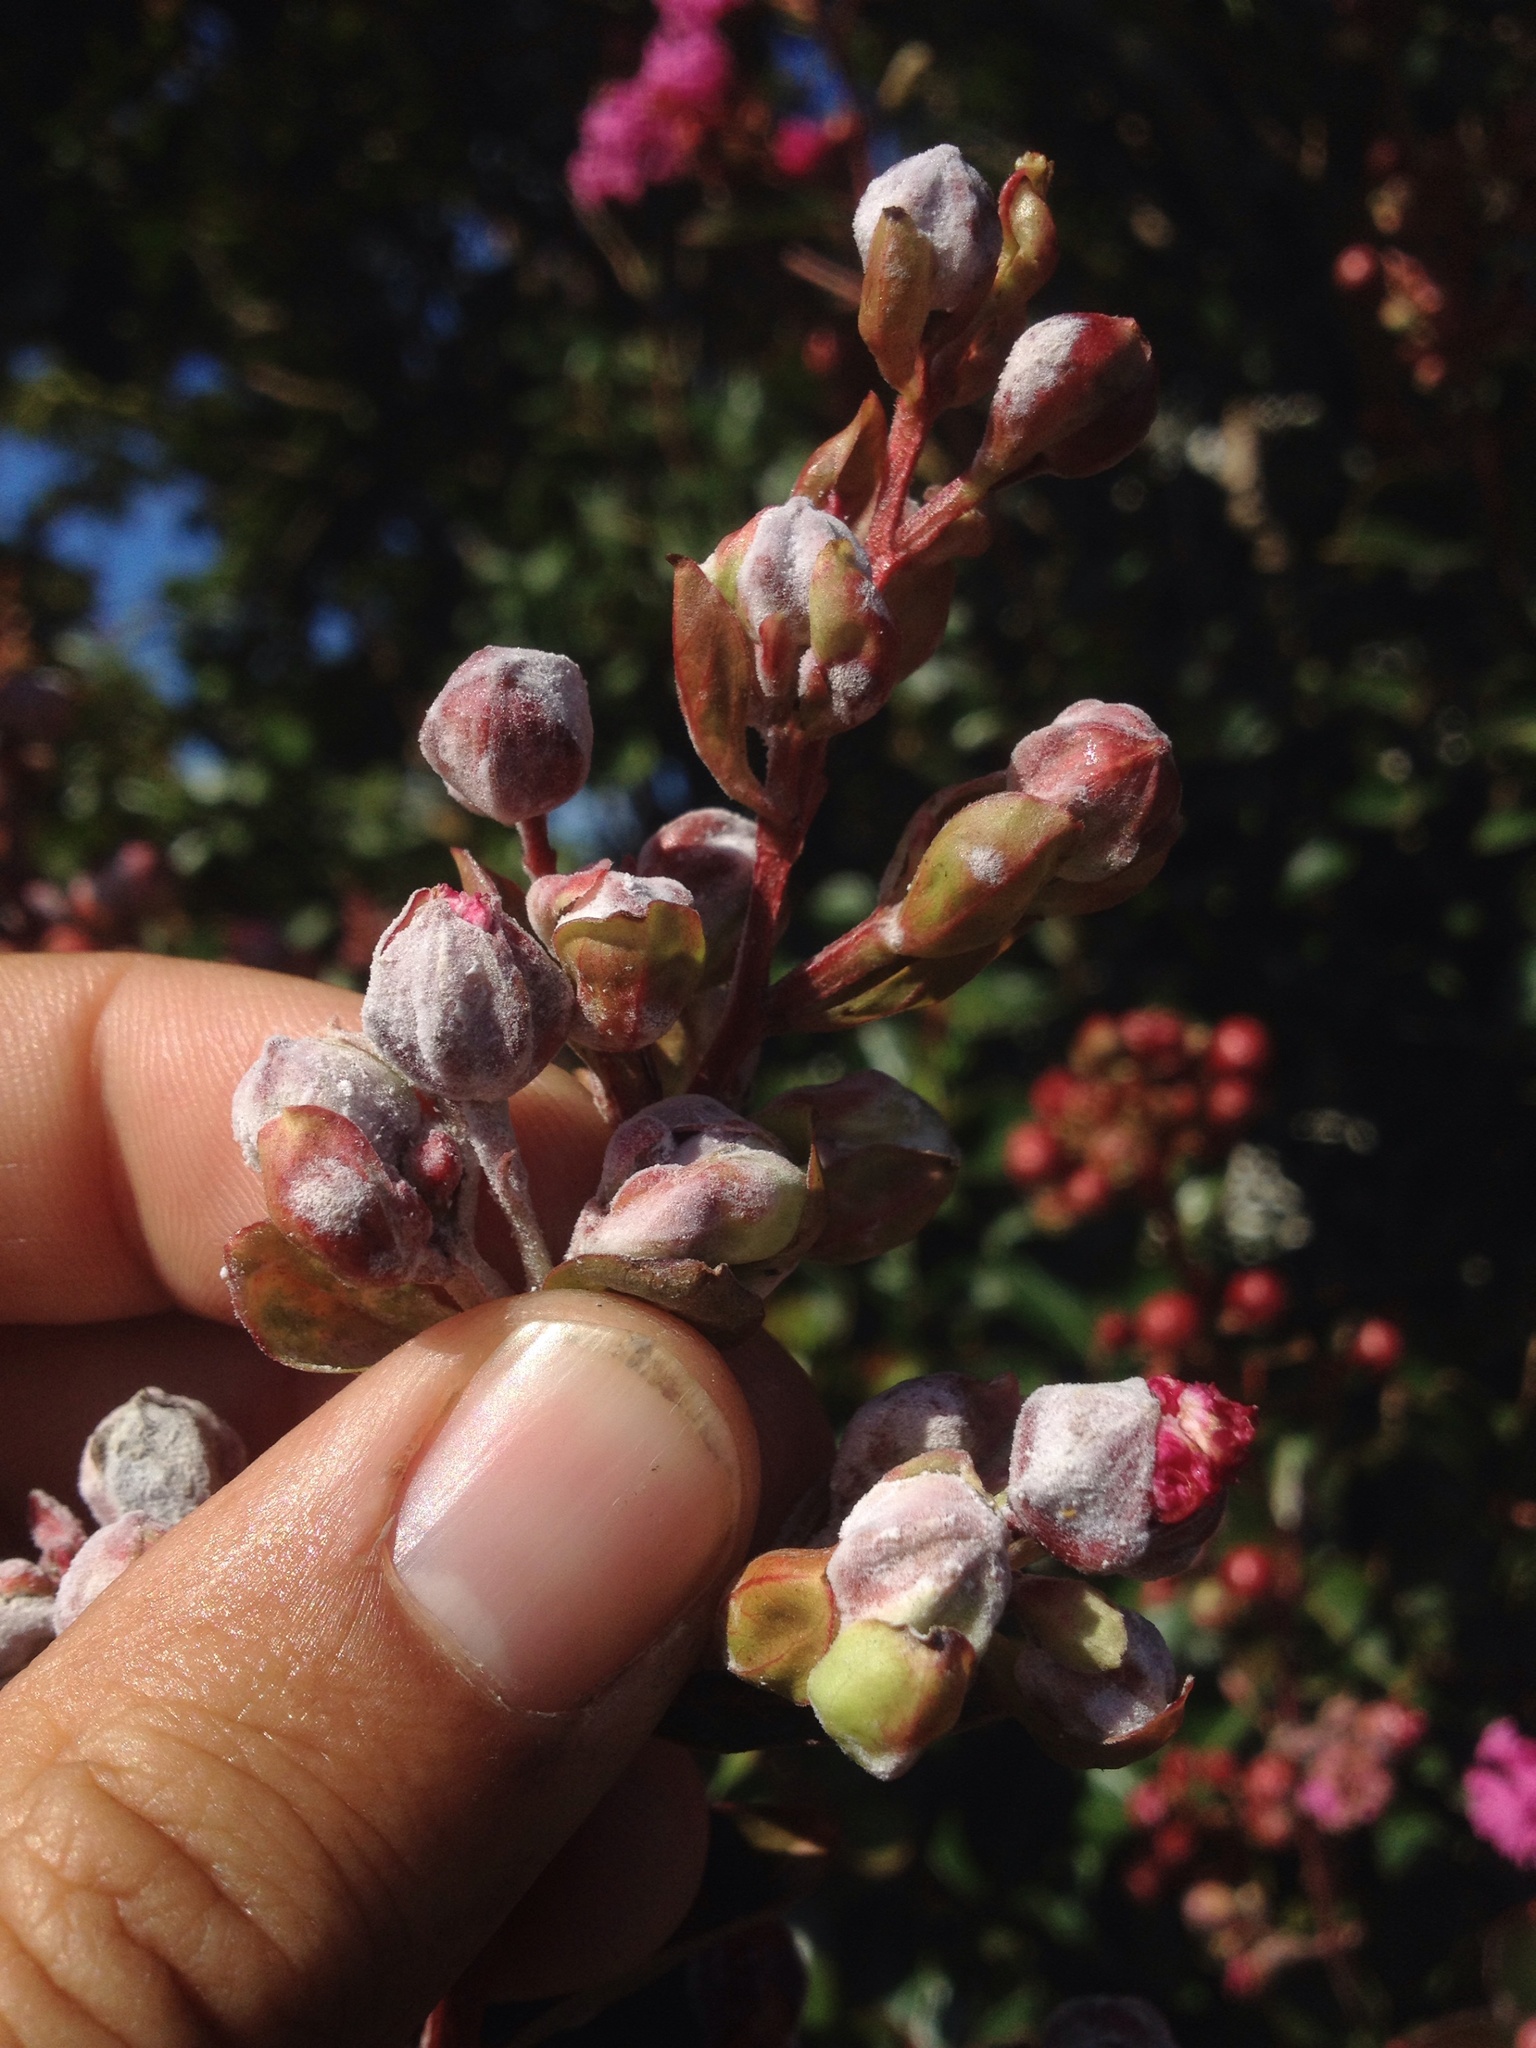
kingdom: Fungi
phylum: Ascomycota
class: Leotiomycetes
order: Helotiales
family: Erysiphaceae
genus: Erysiphe
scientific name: Erysiphe australiana
